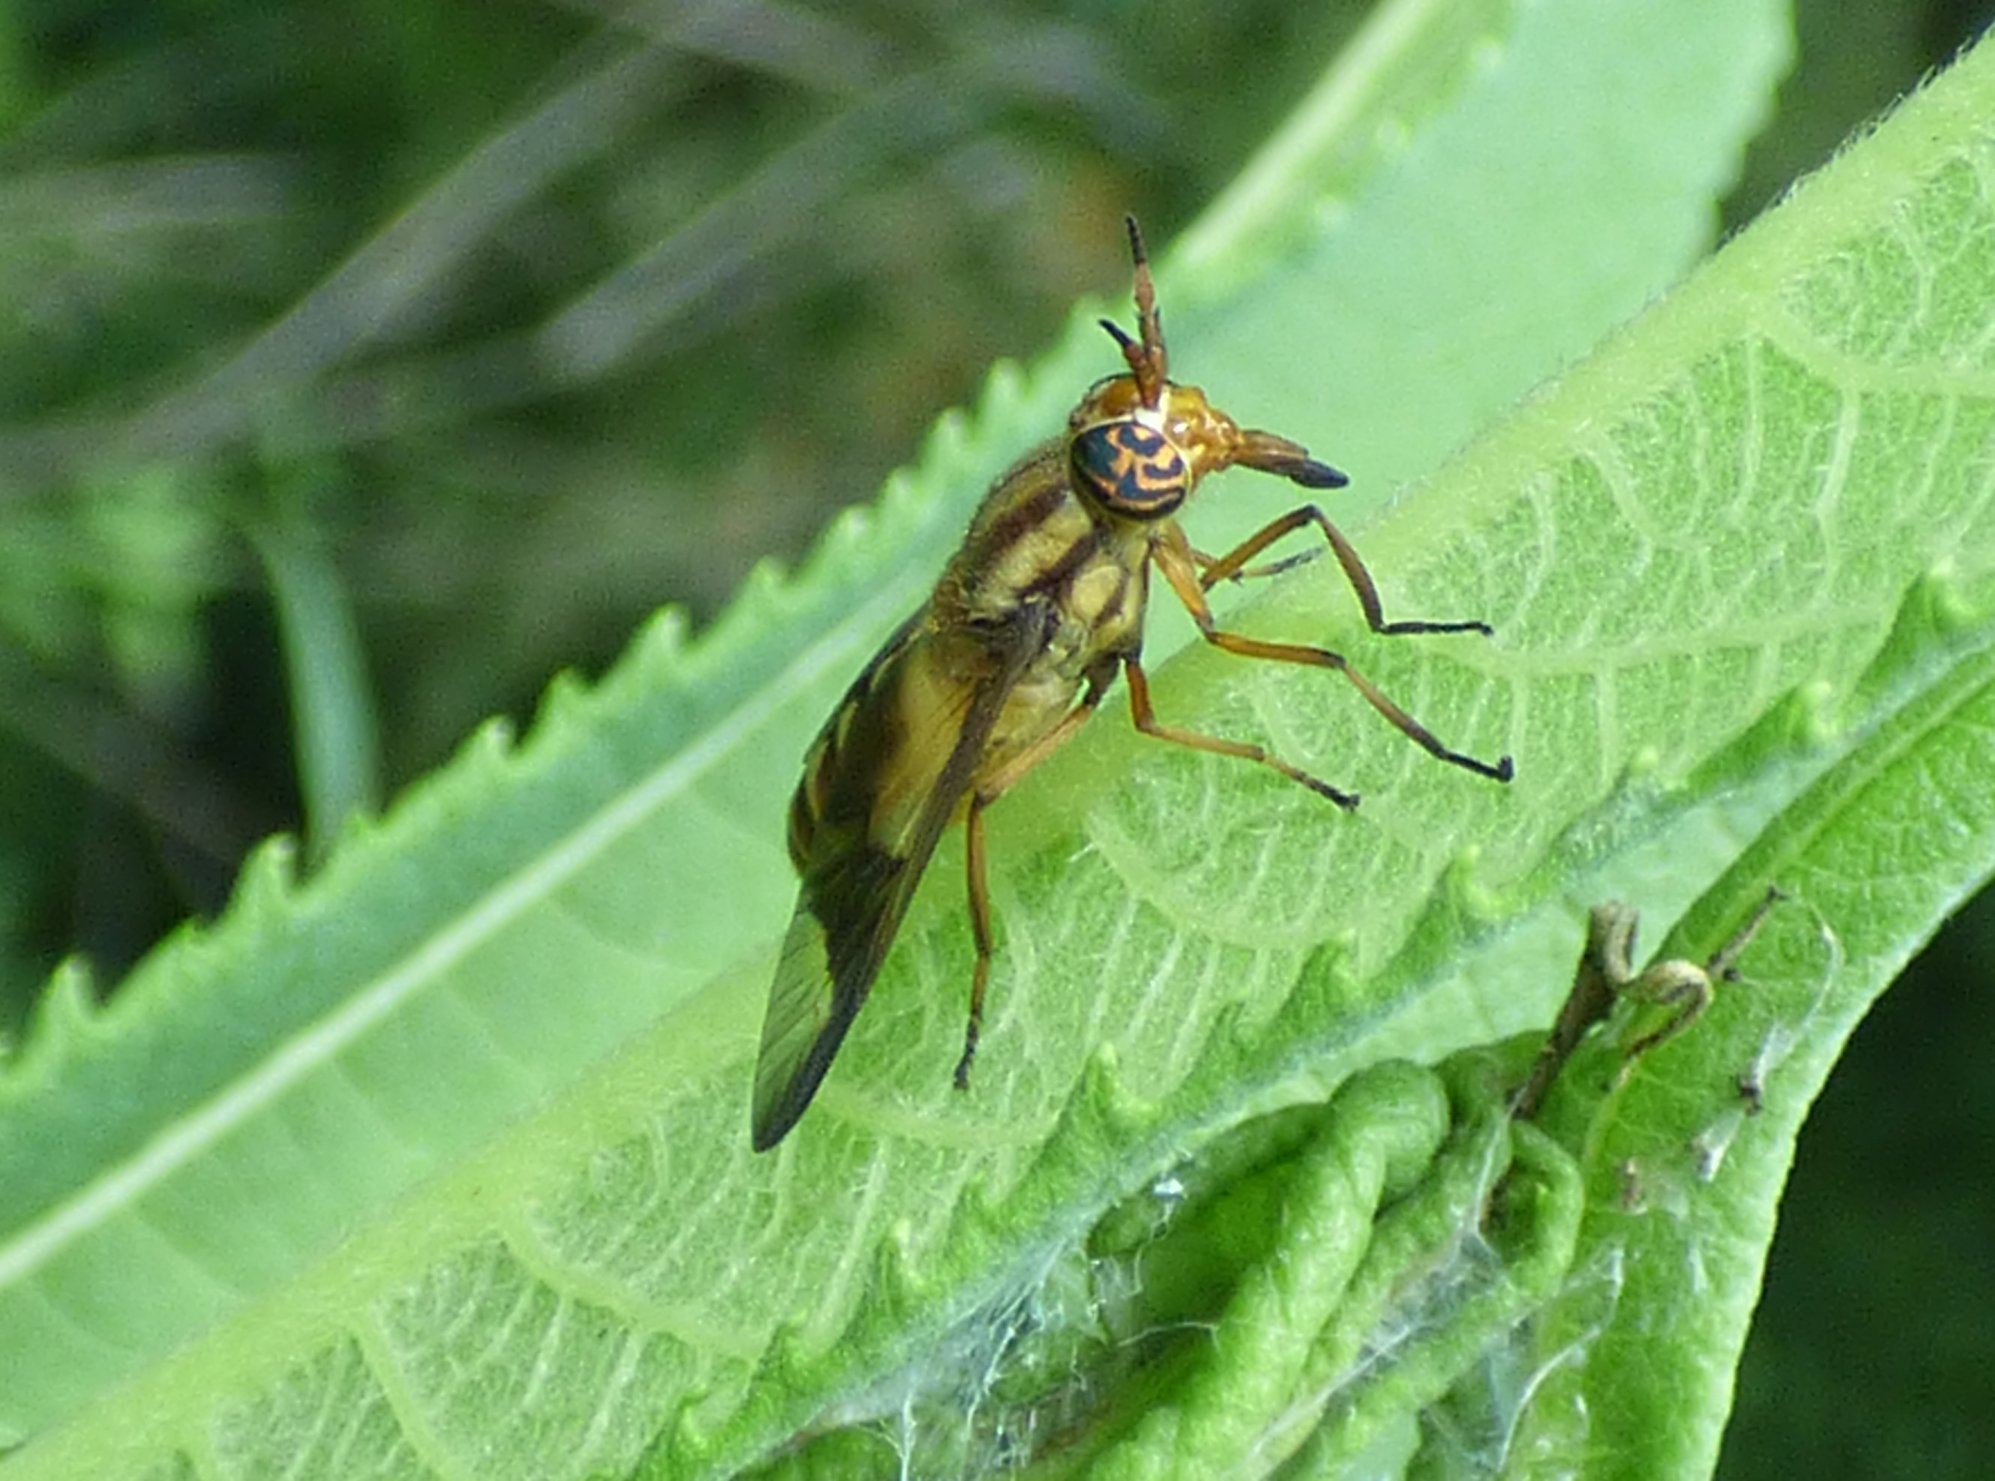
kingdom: Animalia
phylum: Arthropoda
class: Insecta
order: Diptera
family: Tabanidae
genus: Chrysops
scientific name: Chrysops vittatus
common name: Striped deer fly
